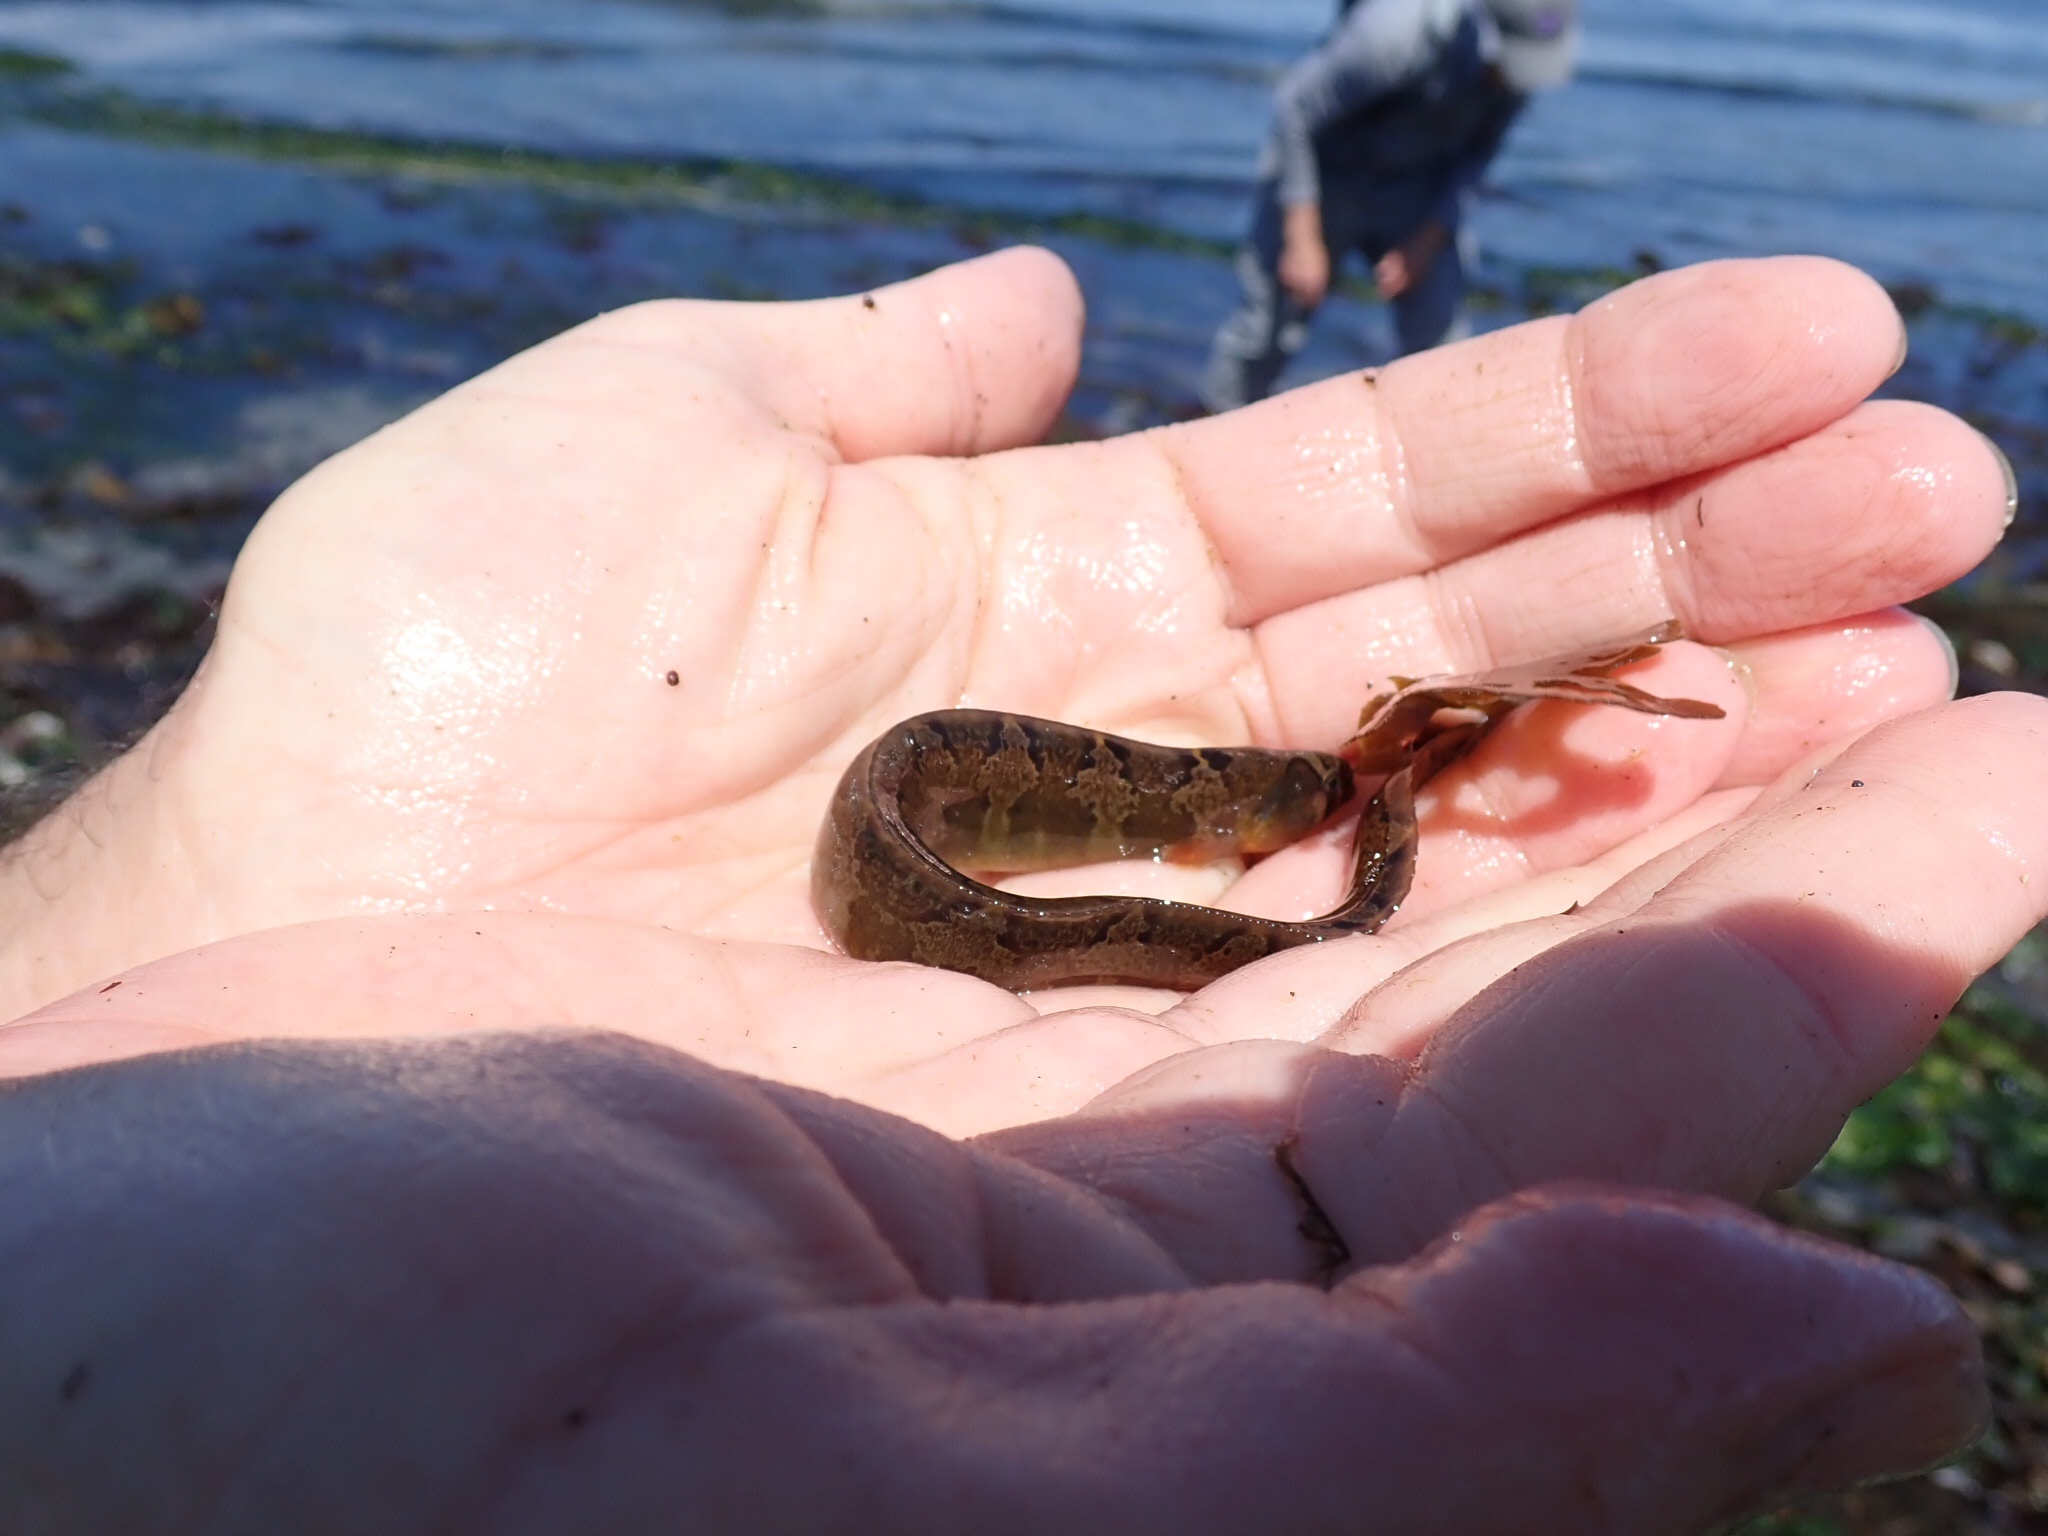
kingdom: Animalia
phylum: Chordata
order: Perciformes
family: Pholidae
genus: Pholis
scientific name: Pholis ornata
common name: Saddleback gunnel
